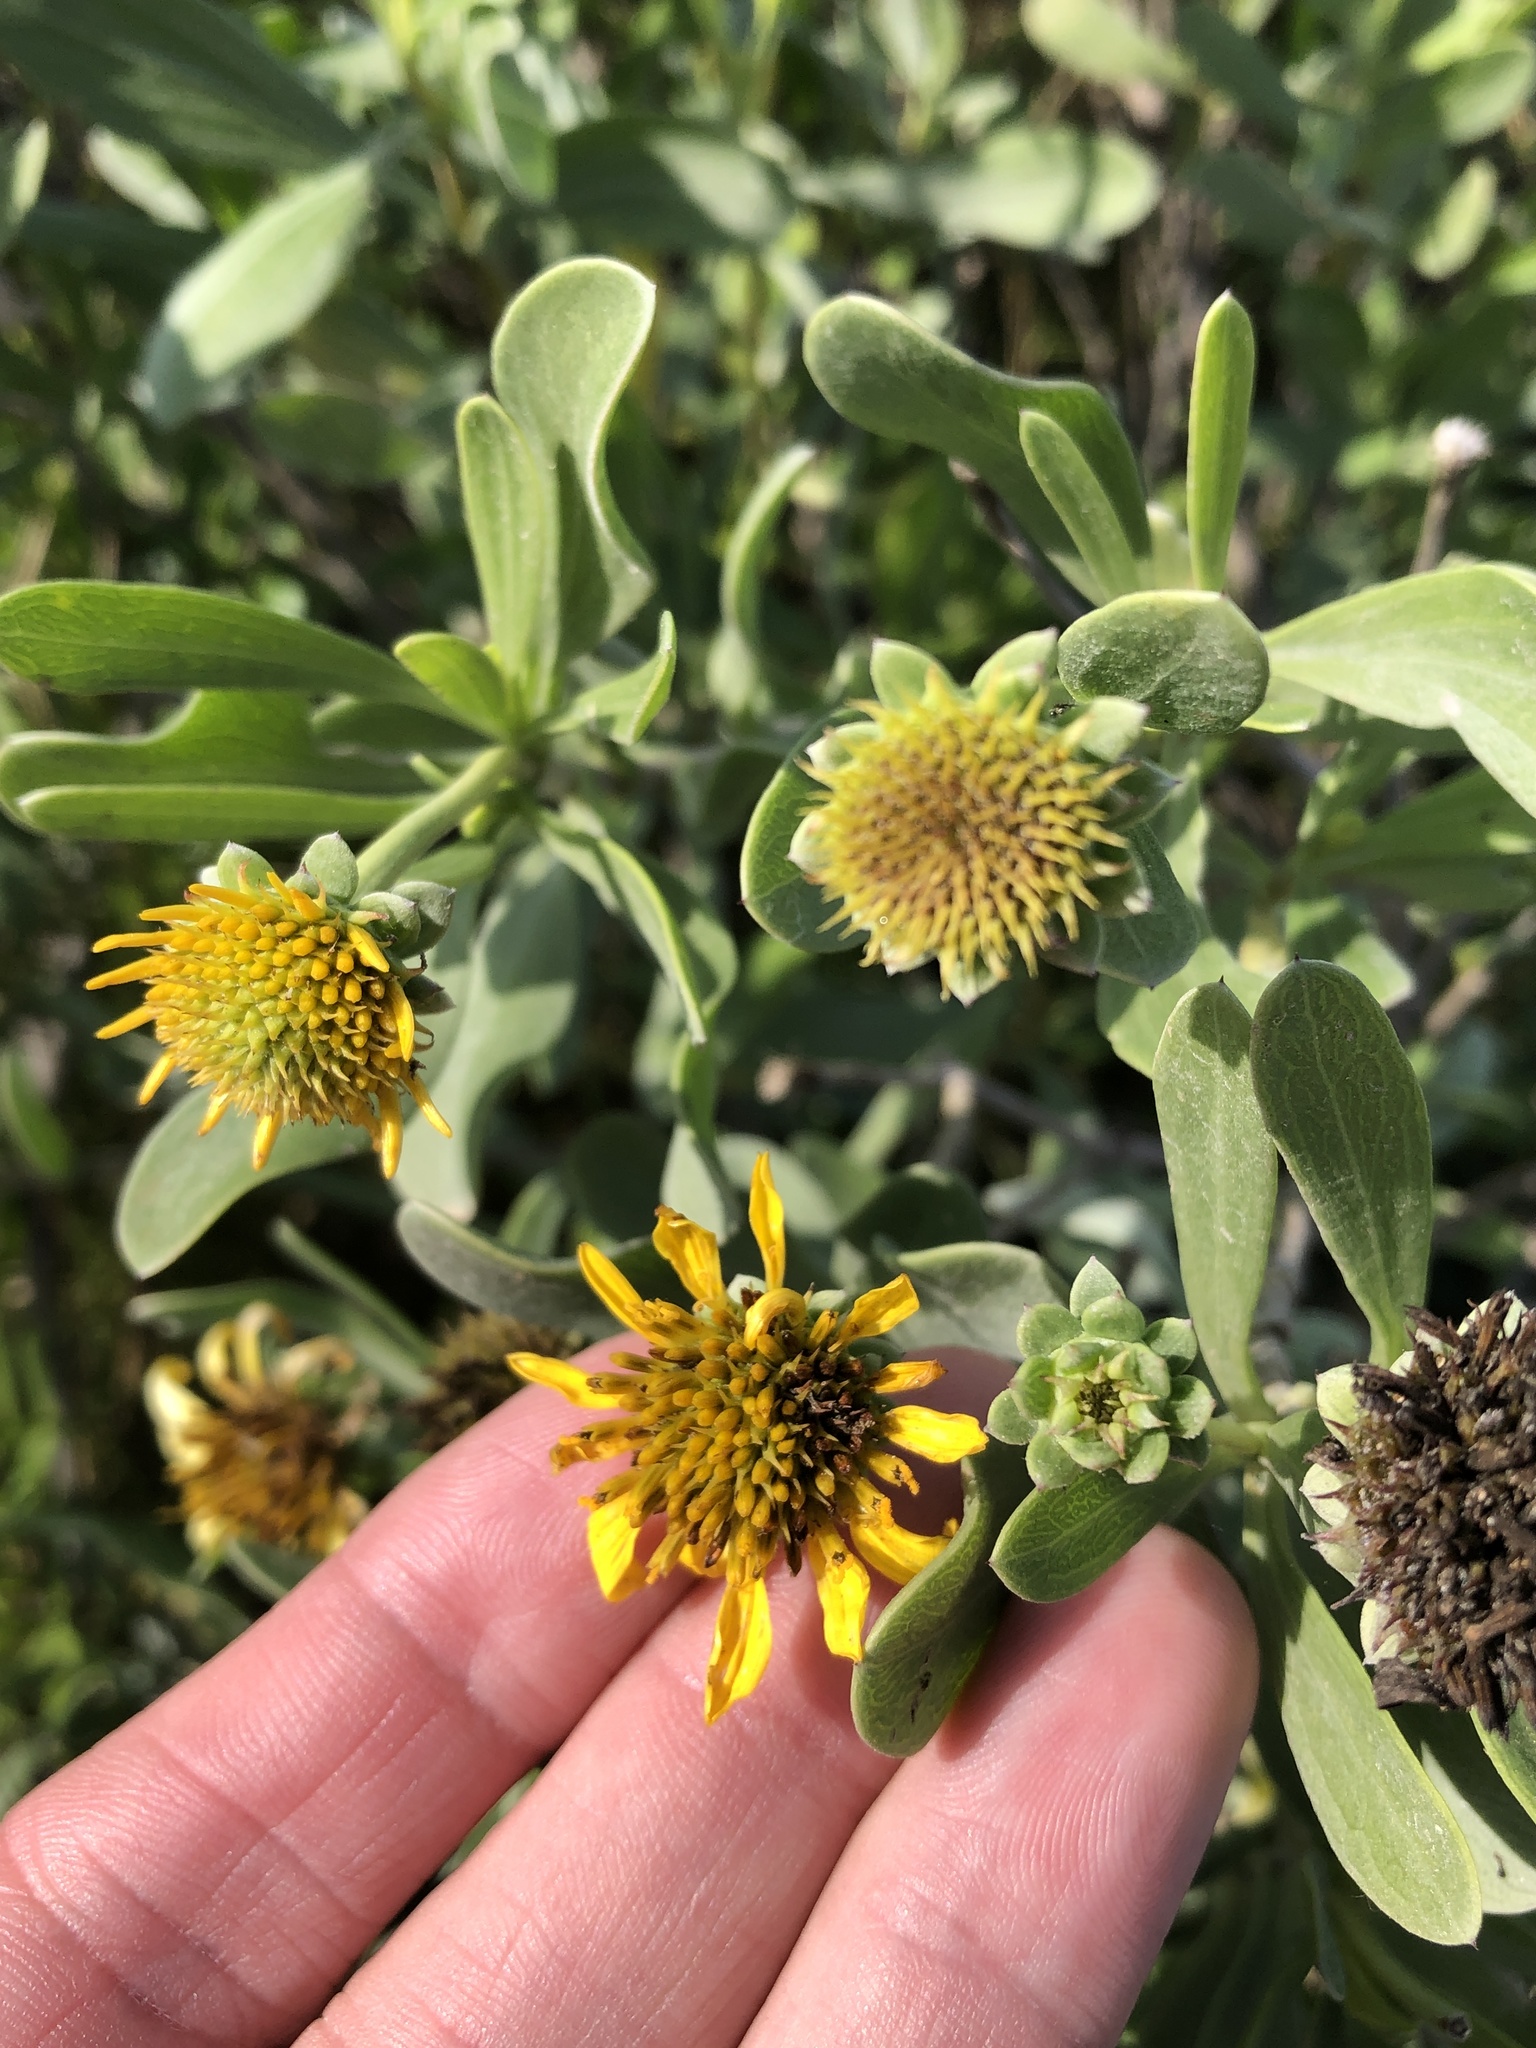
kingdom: Plantae
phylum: Tracheophyta
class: Magnoliopsida
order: Asterales
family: Asteraceae
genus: Borrichia
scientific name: Borrichia frutescens
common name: Sea oxeye
